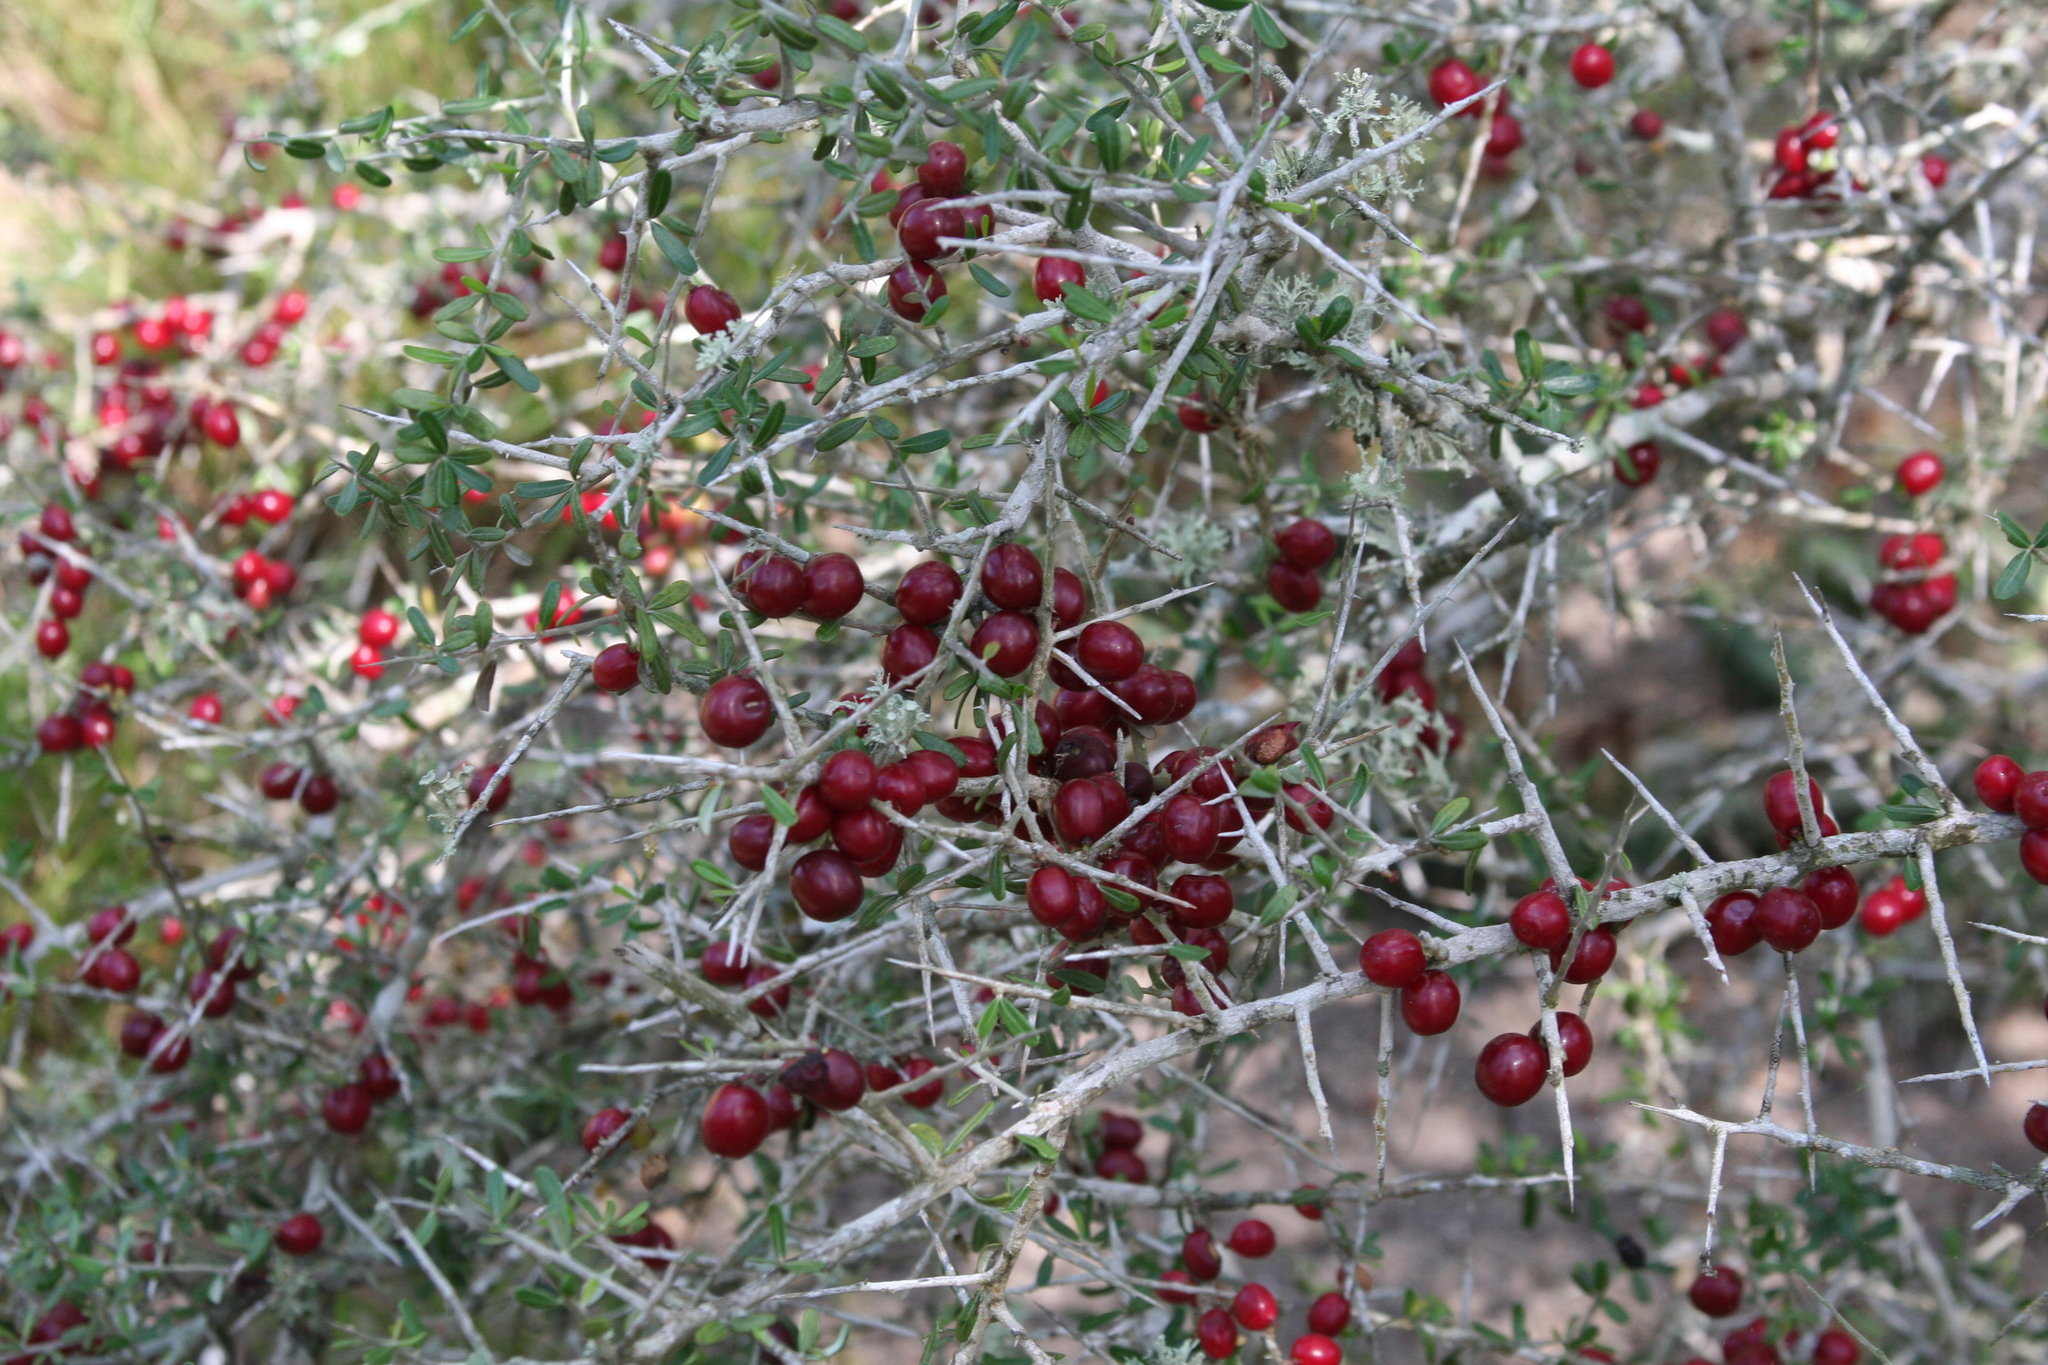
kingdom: Plantae
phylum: Tracheophyta
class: Magnoliopsida
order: Sapindales
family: Simaroubaceae
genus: Castela
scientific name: Castela erecta
